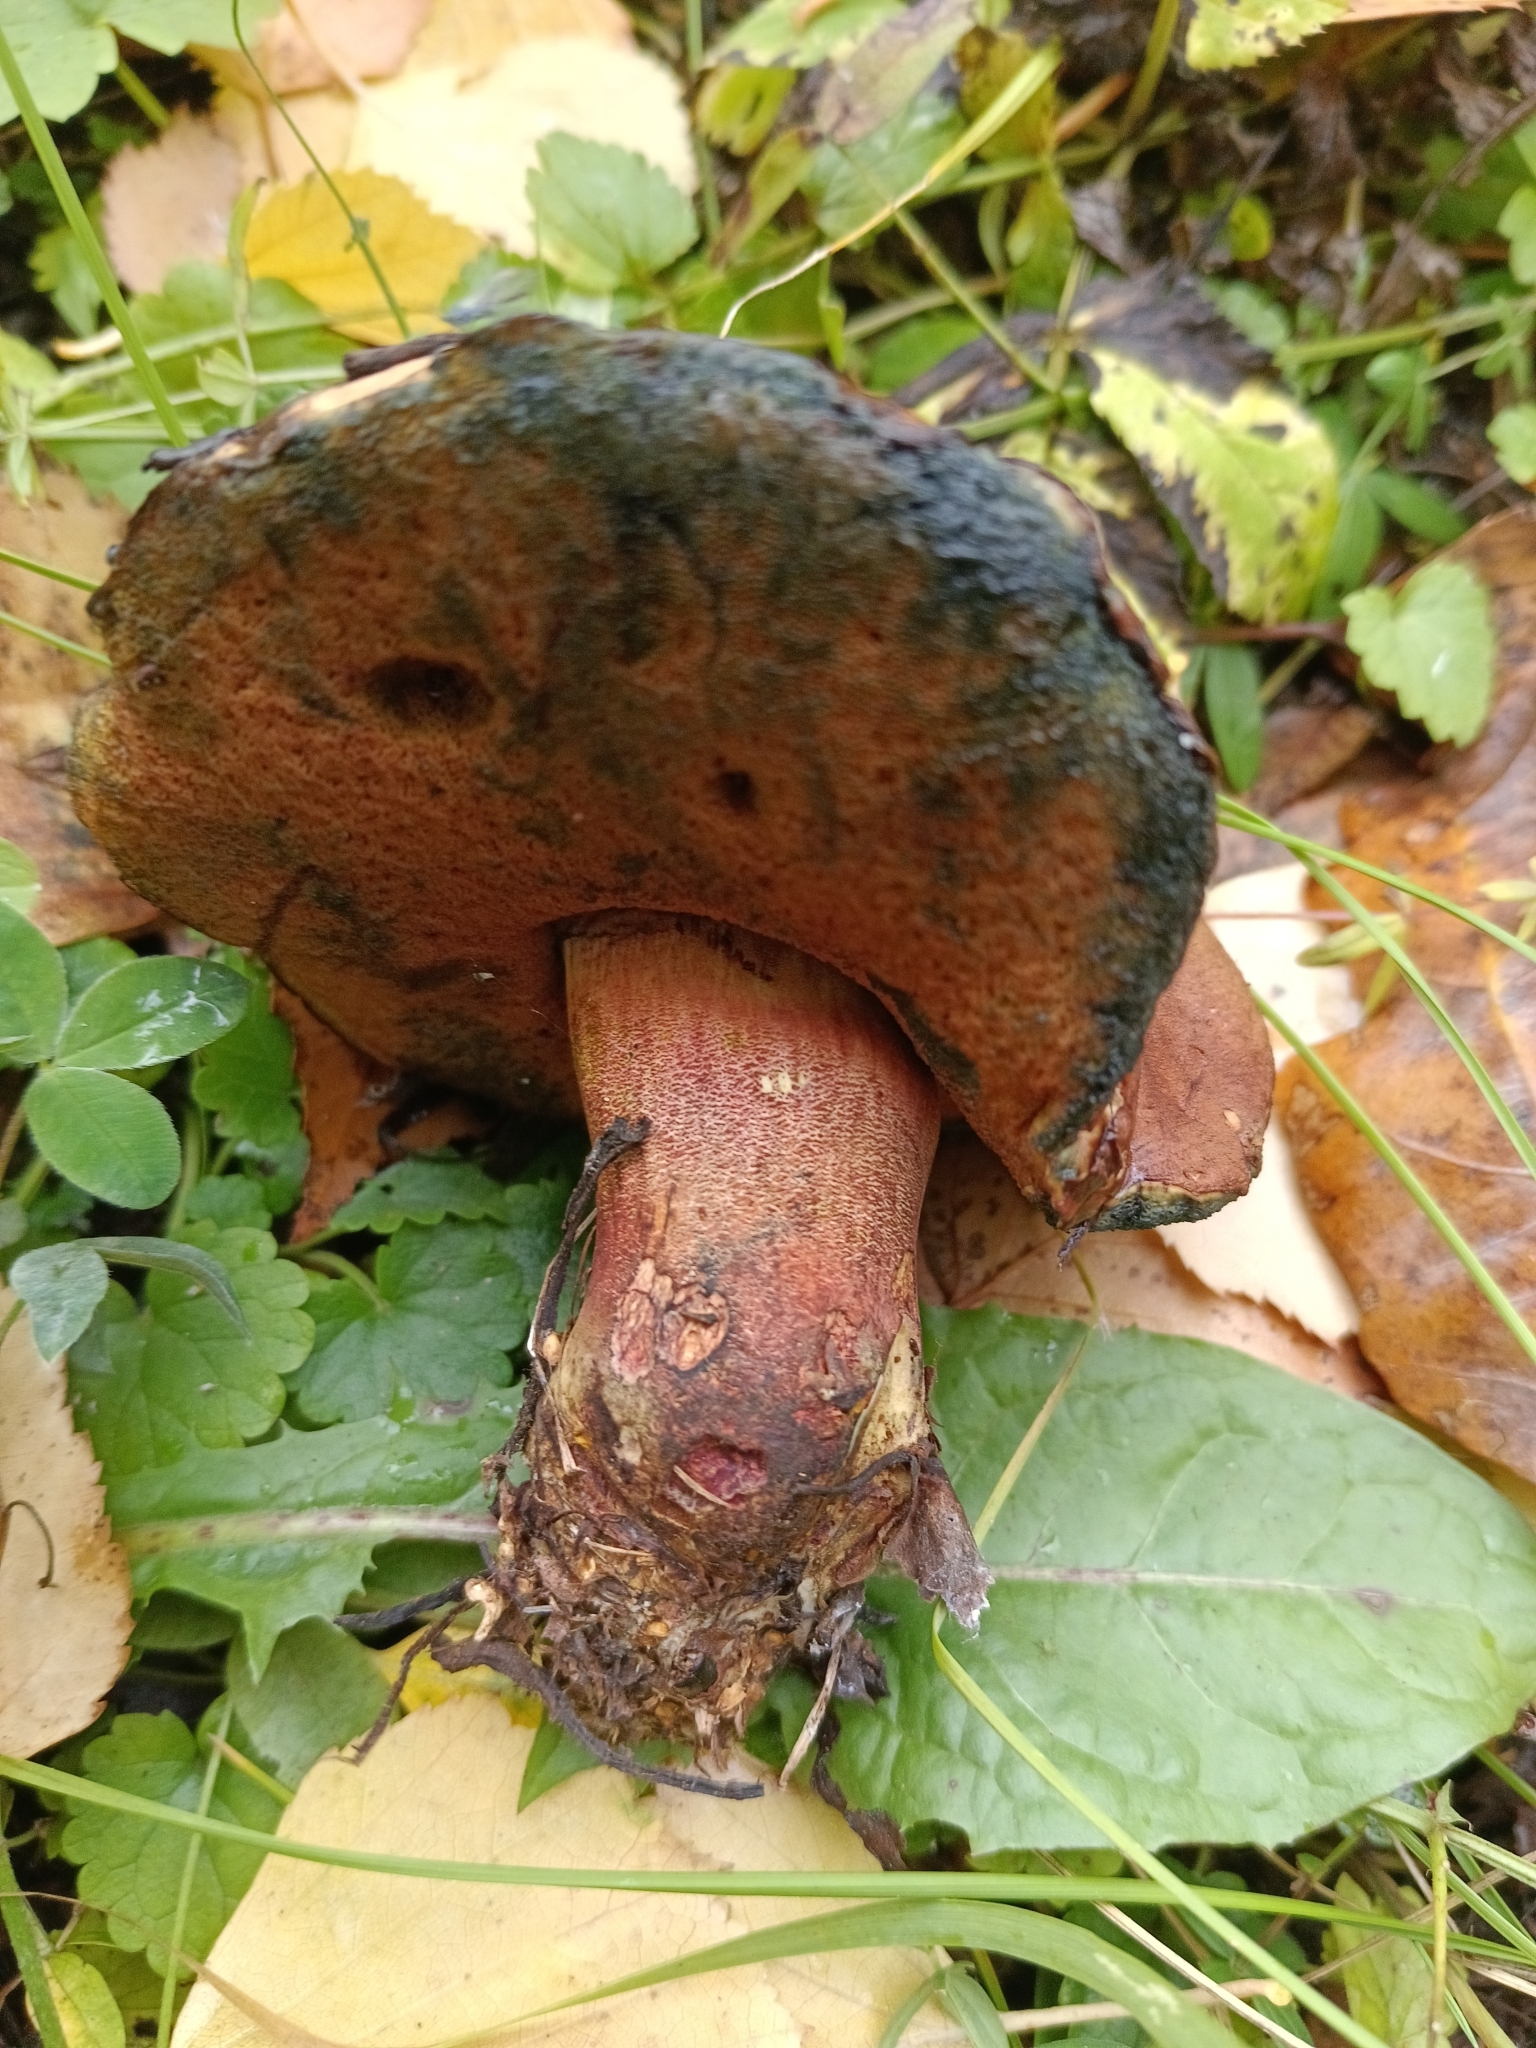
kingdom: Fungi
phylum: Basidiomycota
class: Agaricomycetes
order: Boletales
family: Boletaceae
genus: Neoboletus
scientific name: Neoboletus luridiformis
